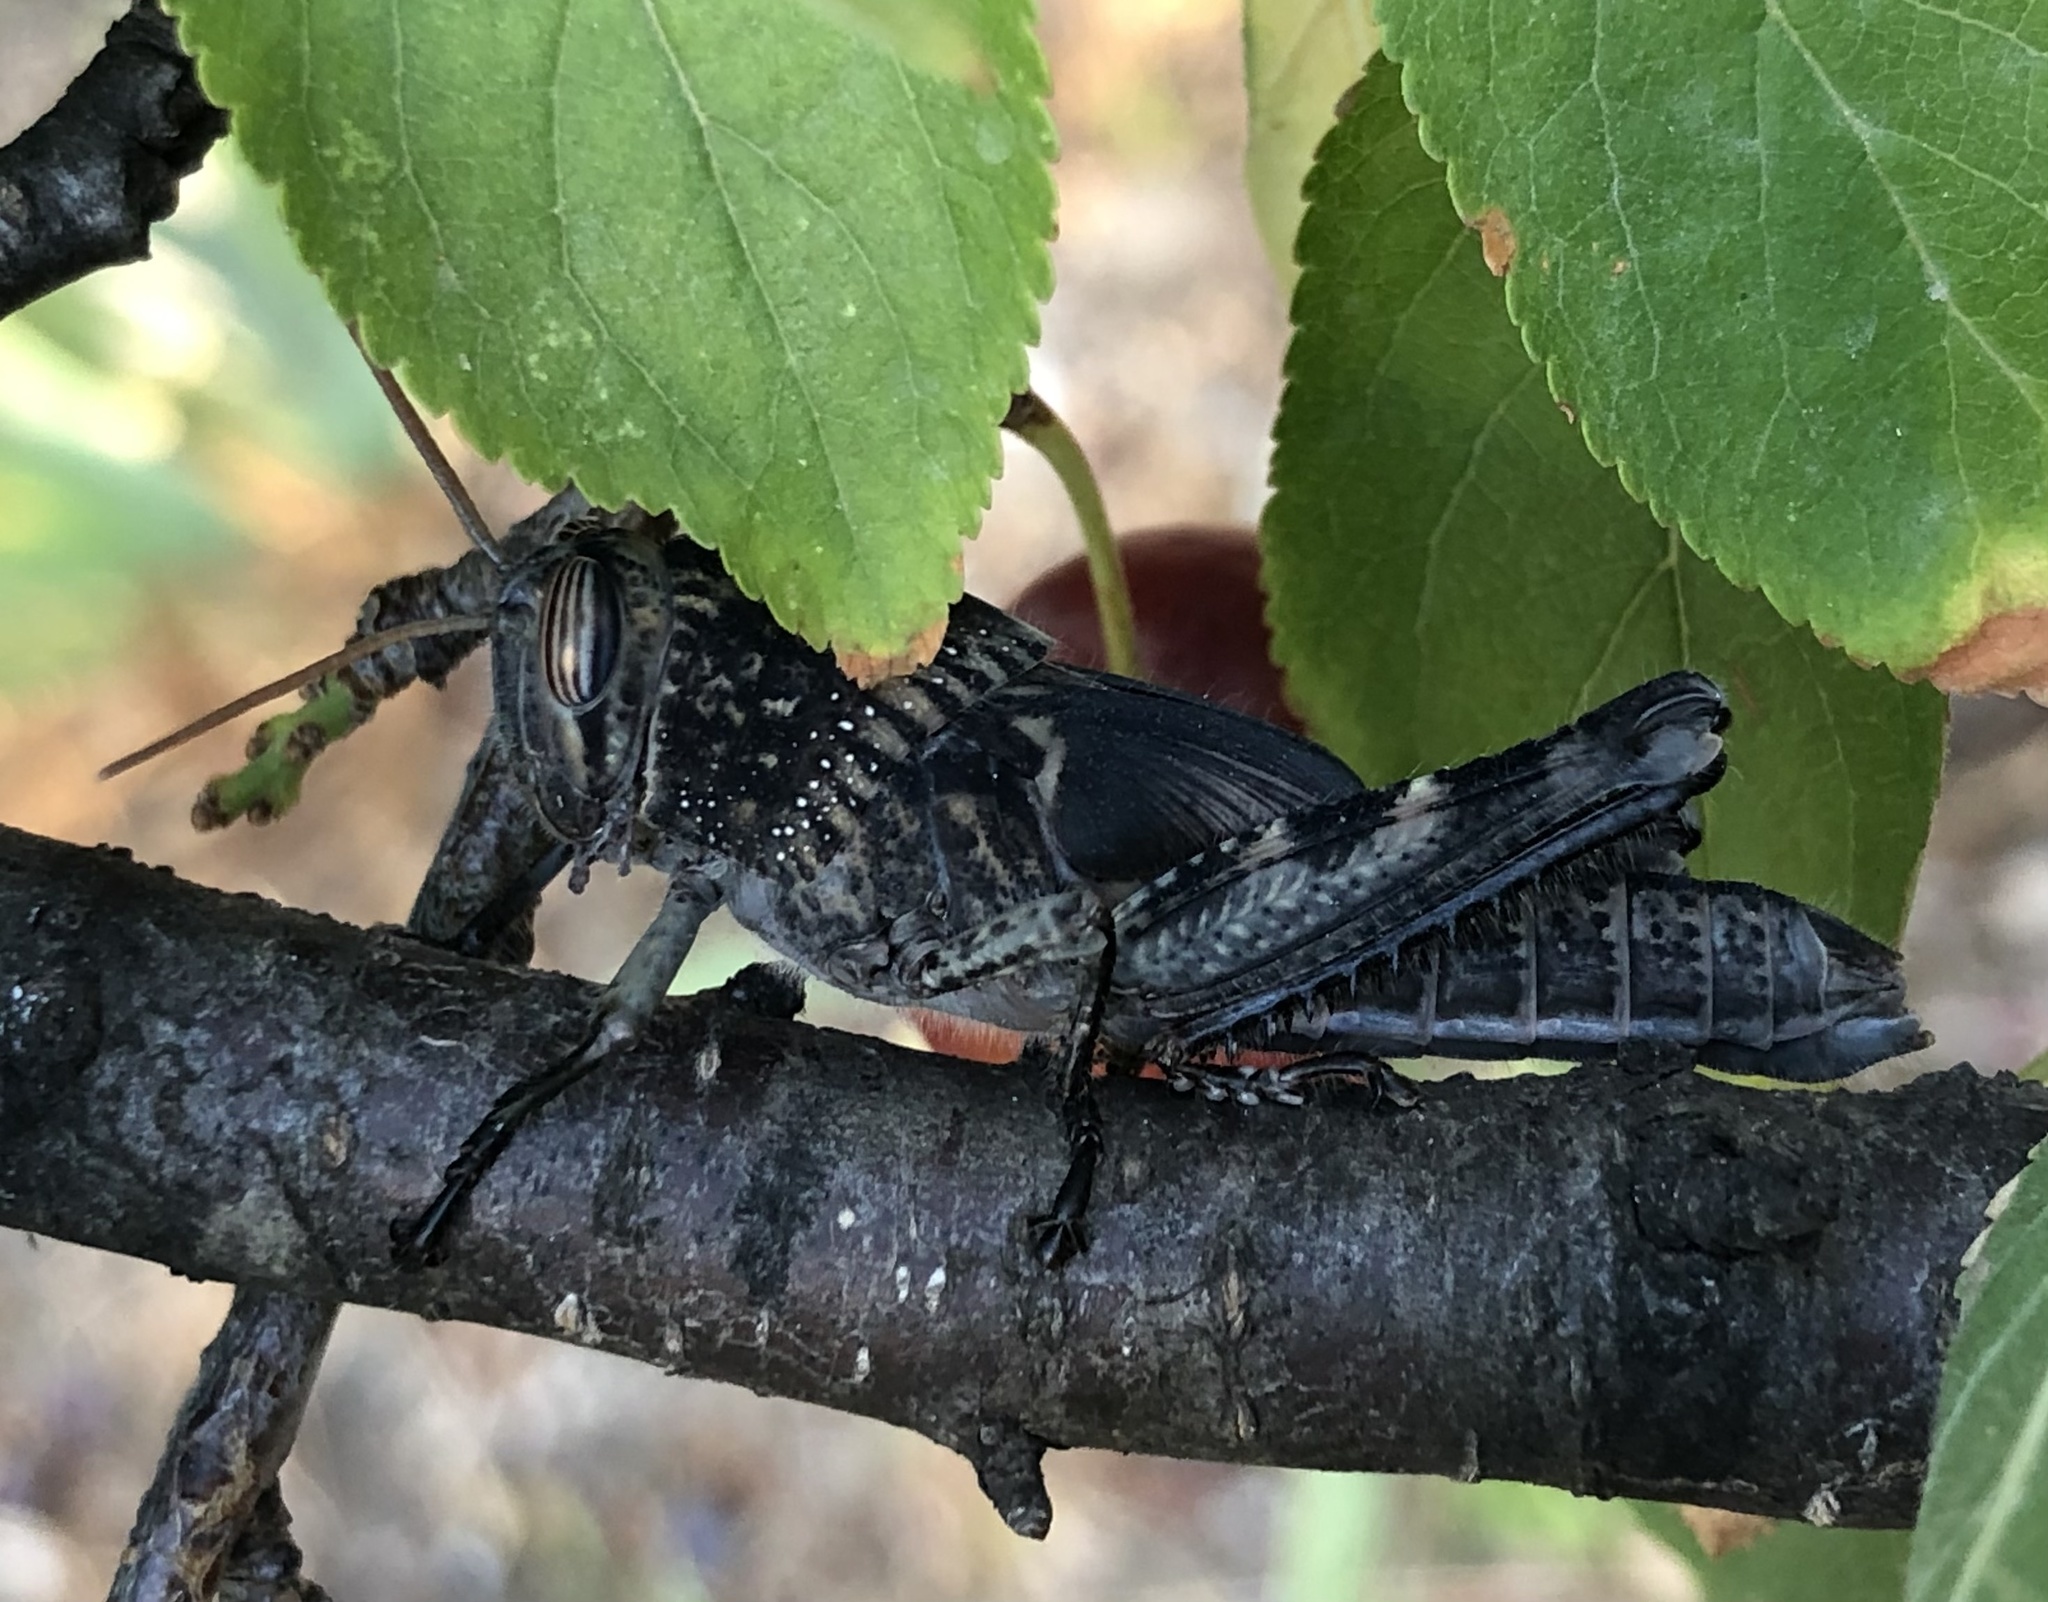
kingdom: Animalia
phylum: Arthropoda
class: Insecta
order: Orthoptera
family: Acrididae
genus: Anacridium
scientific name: Anacridium aegyptium
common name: Egyptian grasshopper
